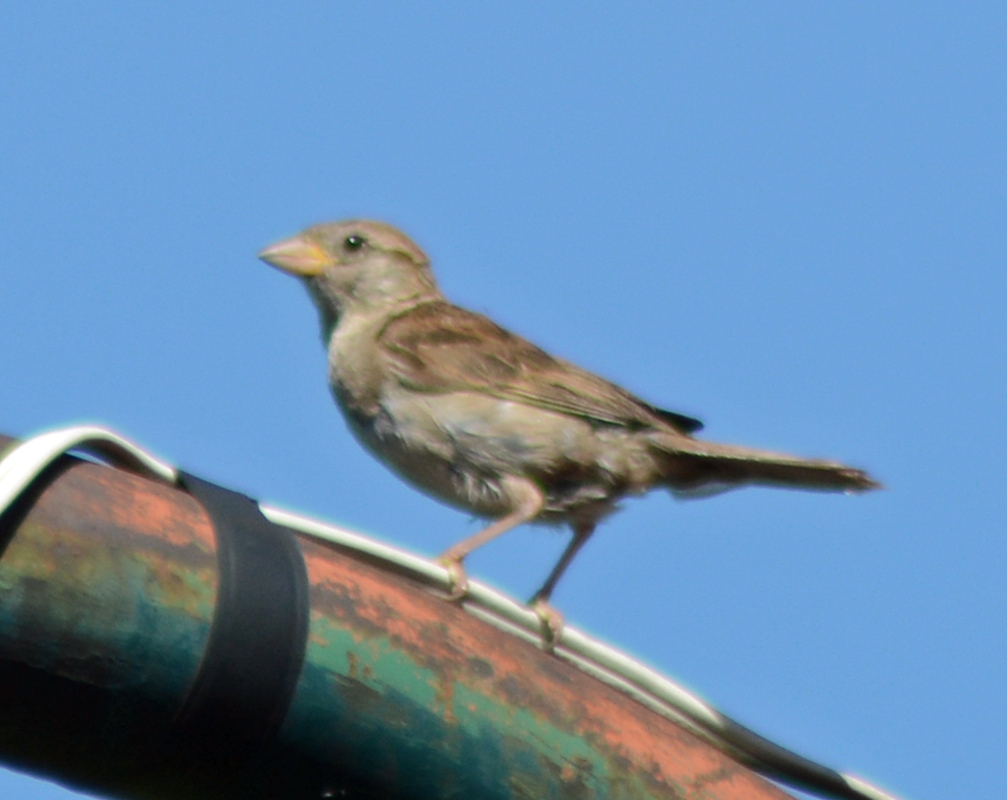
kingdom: Animalia
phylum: Chordata
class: Aves
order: Passeriformes
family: Passeridae
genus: Passer
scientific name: Passer domesticus
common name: House sparrow
